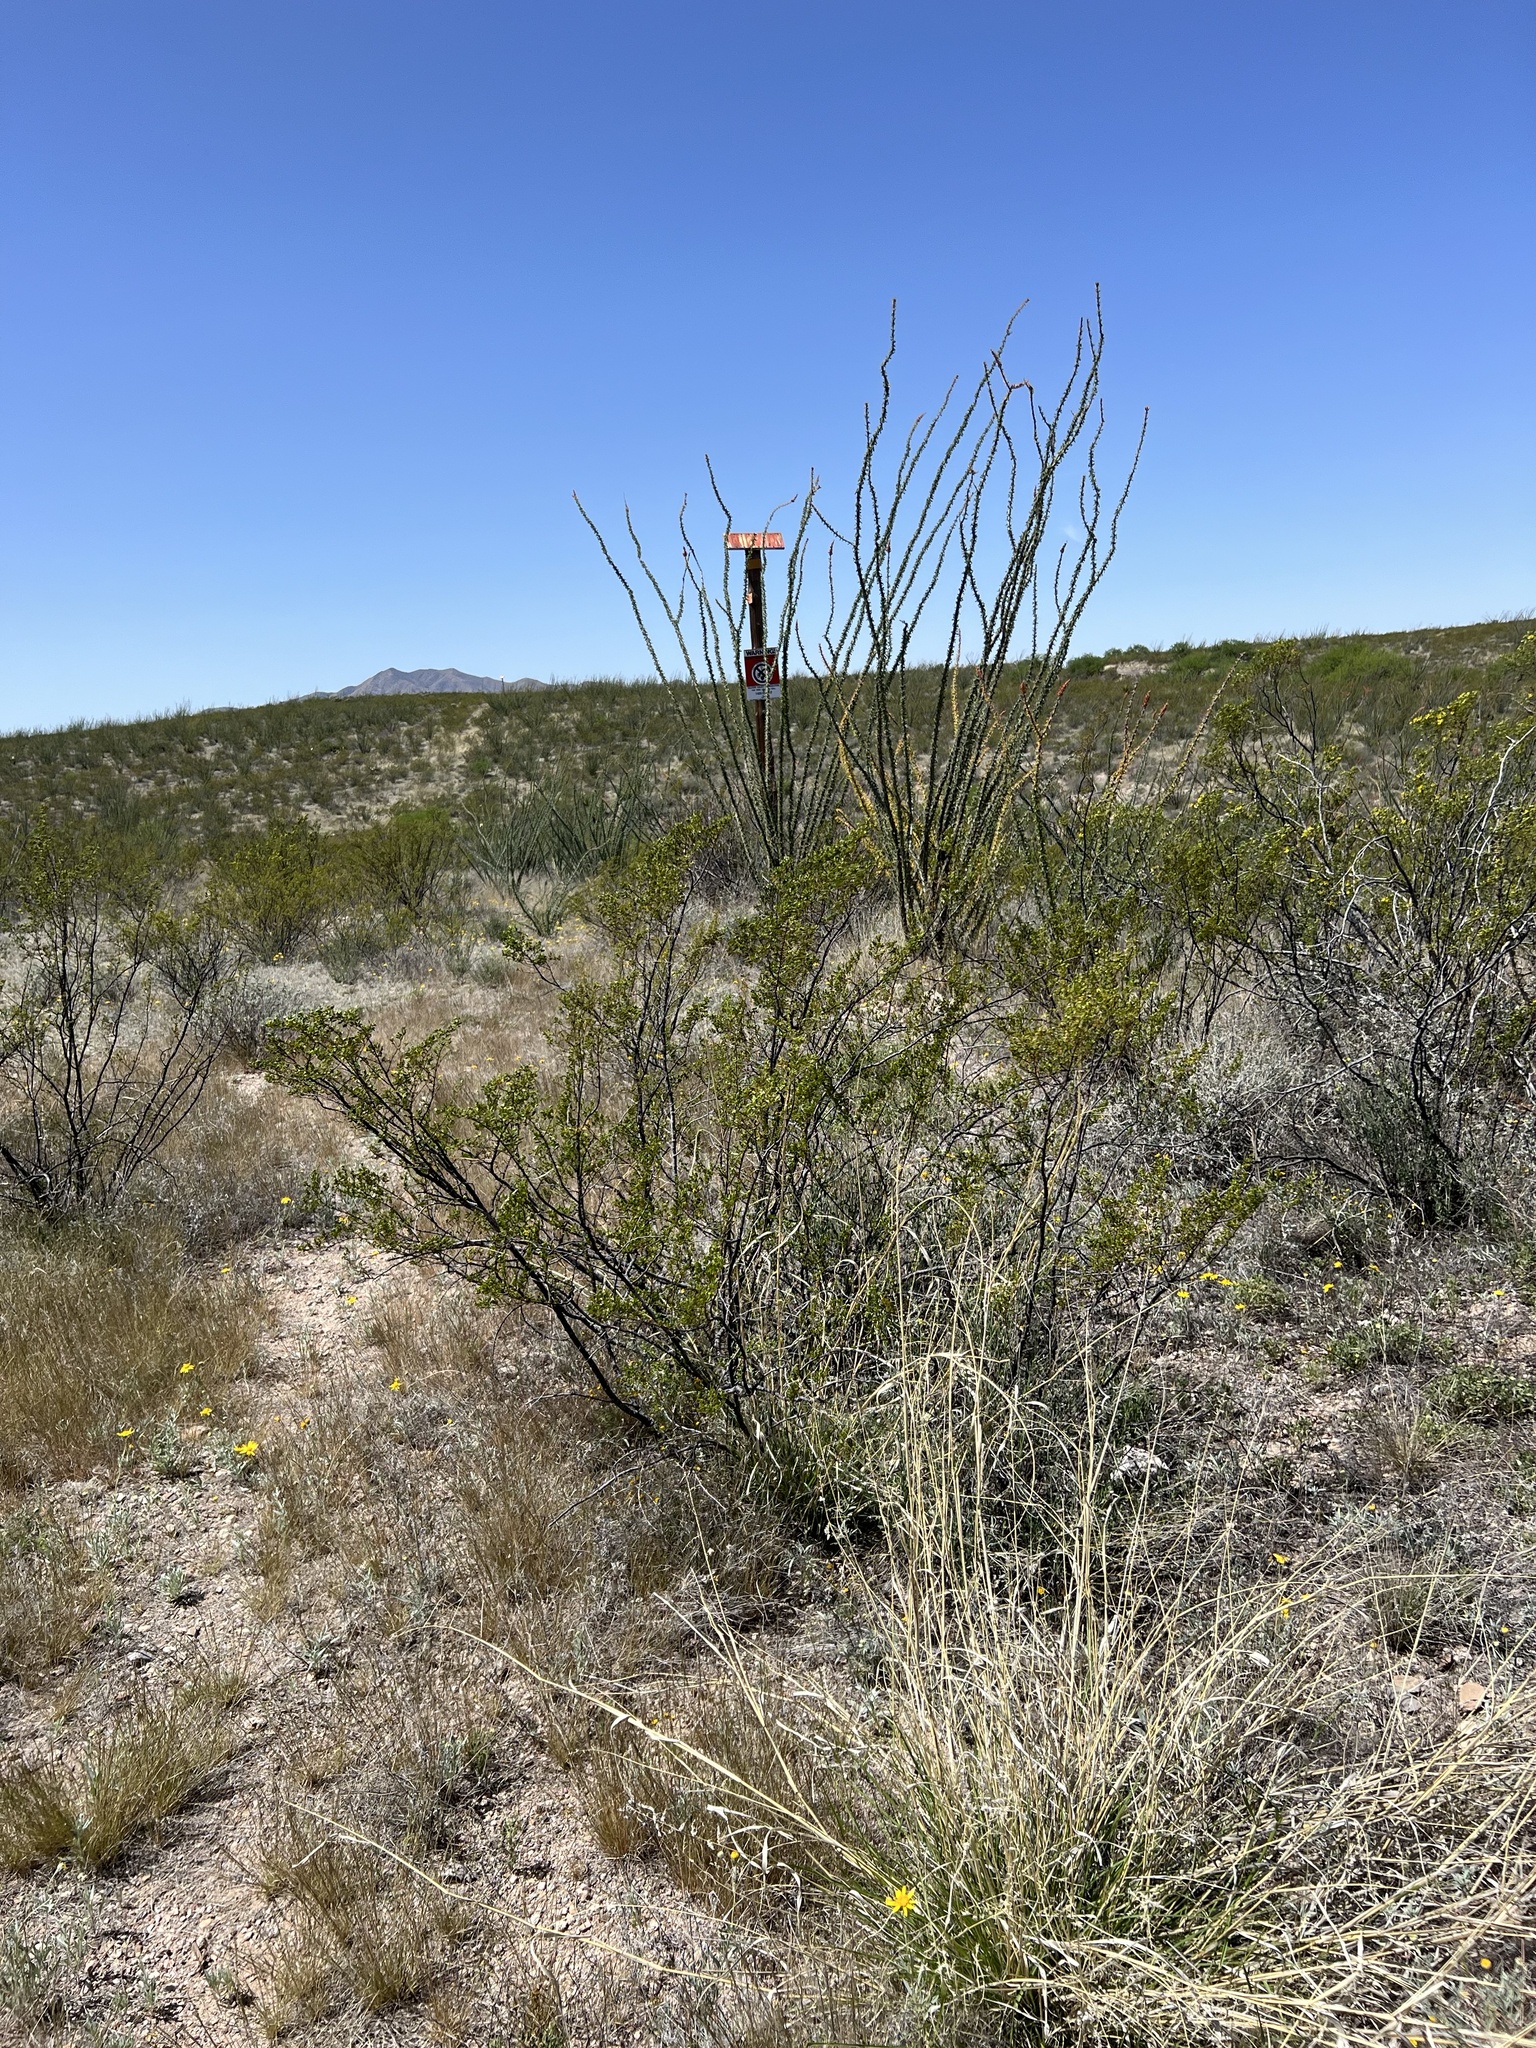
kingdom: Plantae
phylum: Tracheophyta
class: Magnoliopsida
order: Ericales
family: Fouquieriaceae
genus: Fouquieria
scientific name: Fouquieria splendens
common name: Vine-cactus
